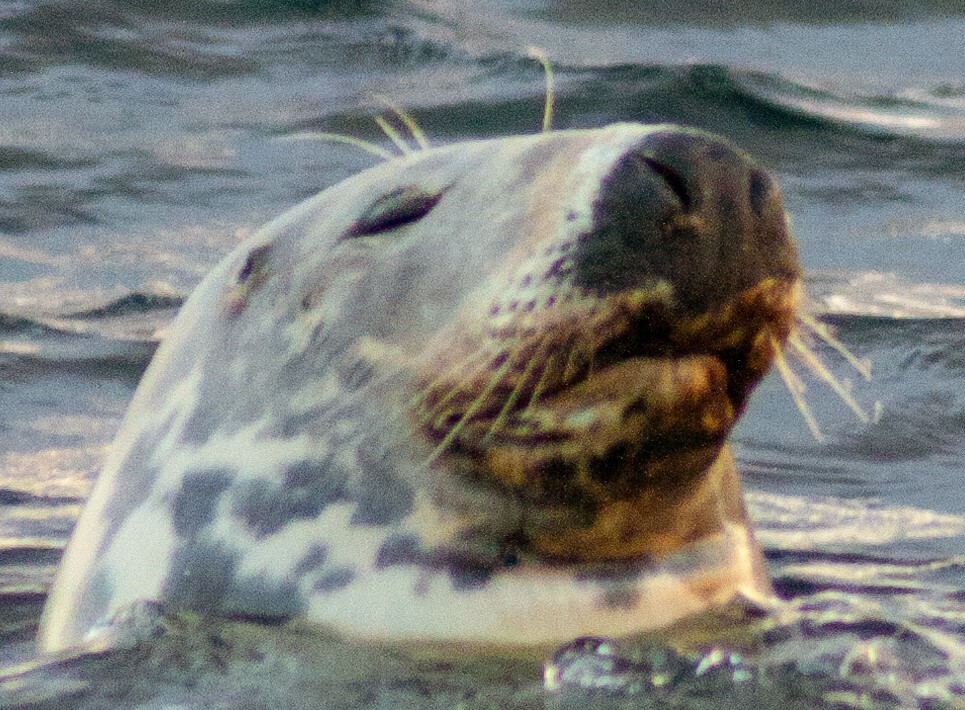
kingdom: Animalia
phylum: Chordata
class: Mammalia
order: Carnivora
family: Phocidae
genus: Halichoerus
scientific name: Halichoerus grypus
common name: Grey seal
